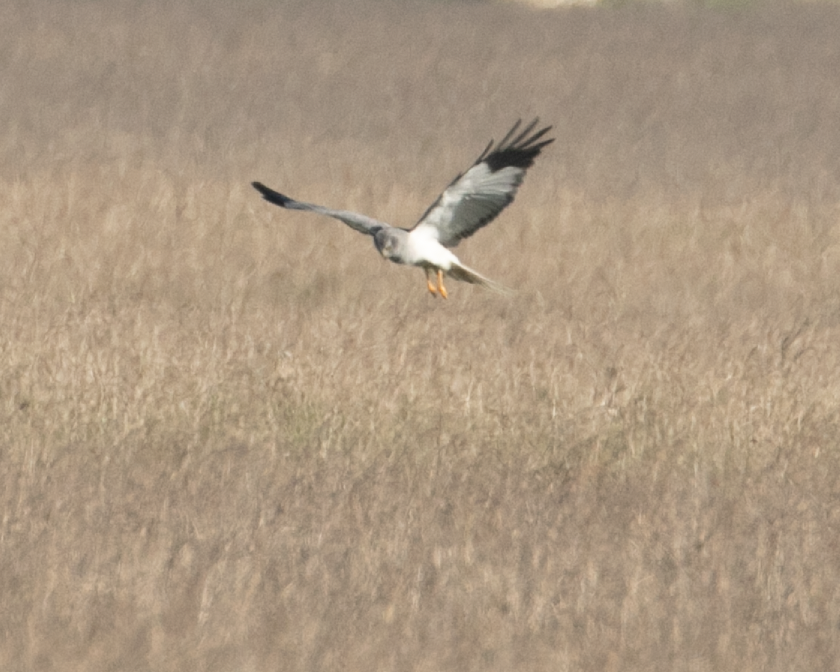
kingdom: Animalia
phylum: Chordata
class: Aves
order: Accipitriformes
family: Accipitridae
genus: Circus
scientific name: Circus cyaneus
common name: Hen harrier
